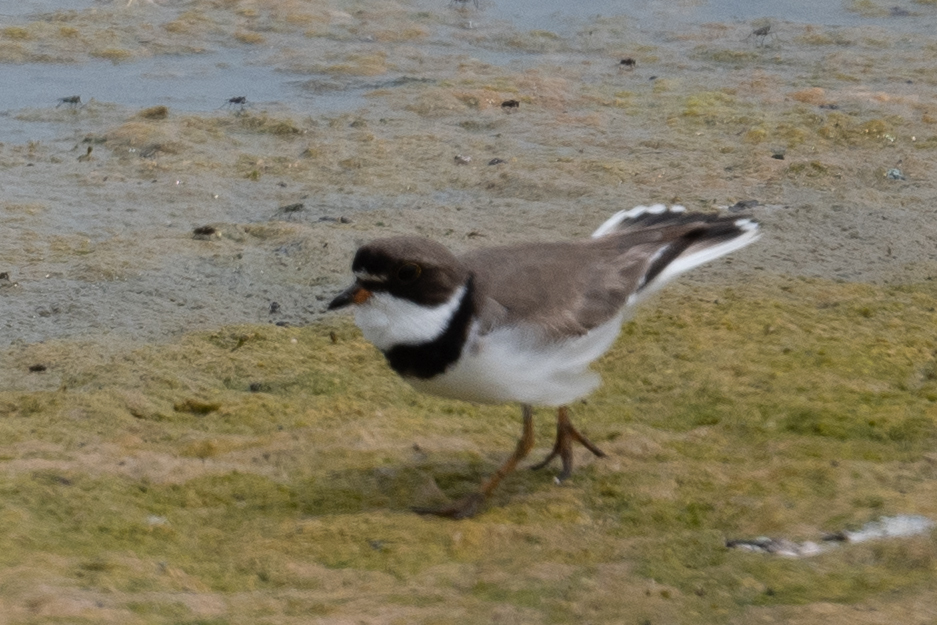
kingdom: Animalia
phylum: Chordata
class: Aves
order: Charadriiformes
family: Charadriidae
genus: Charadrius
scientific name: Charadrius semipalmatus
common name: Semipalmated plover
